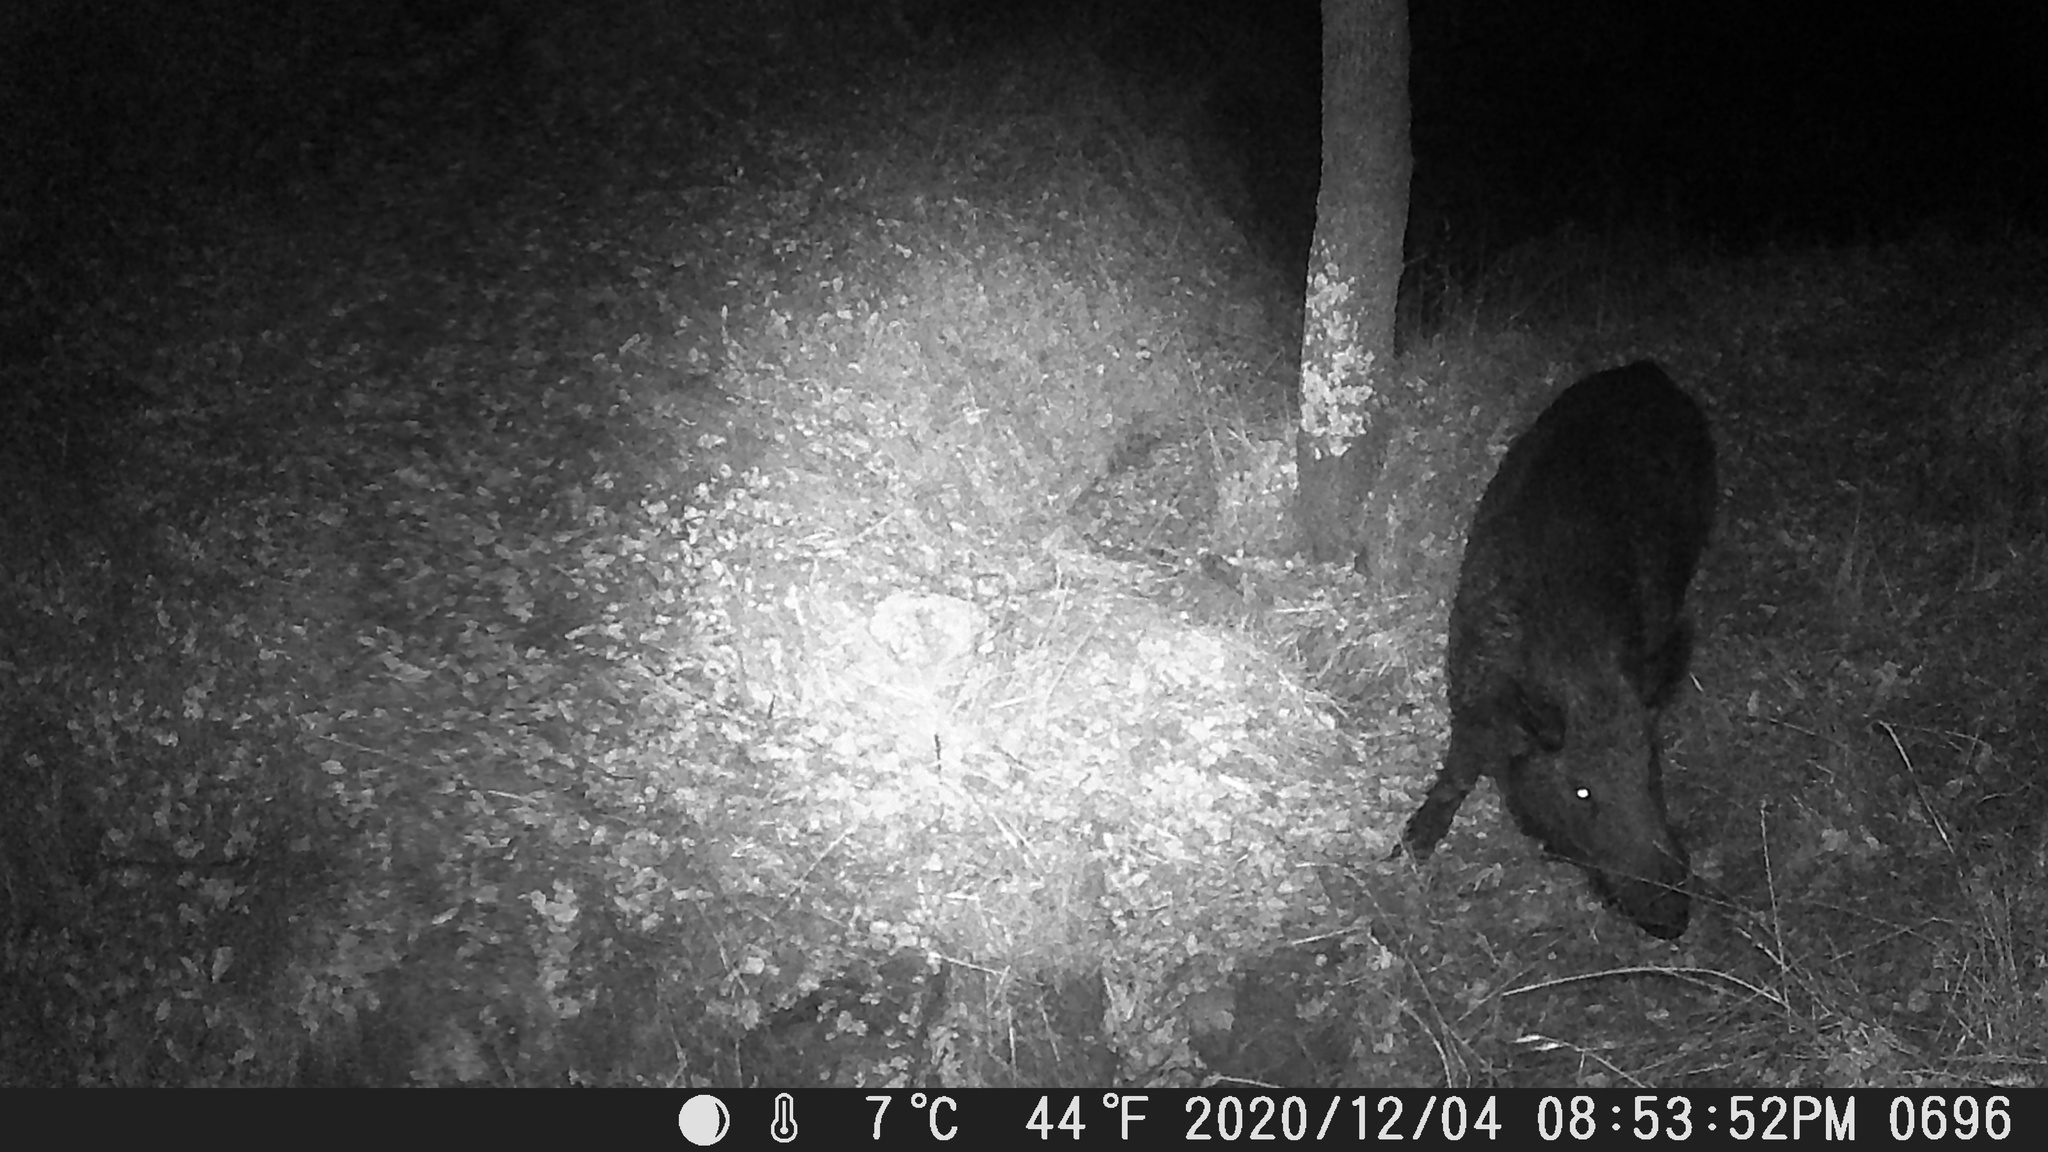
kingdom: Animalia
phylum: Chordata
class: Mammalia
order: Artiodactyla
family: Suidae
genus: Sus
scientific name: Sus scrofa
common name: Wild boar
